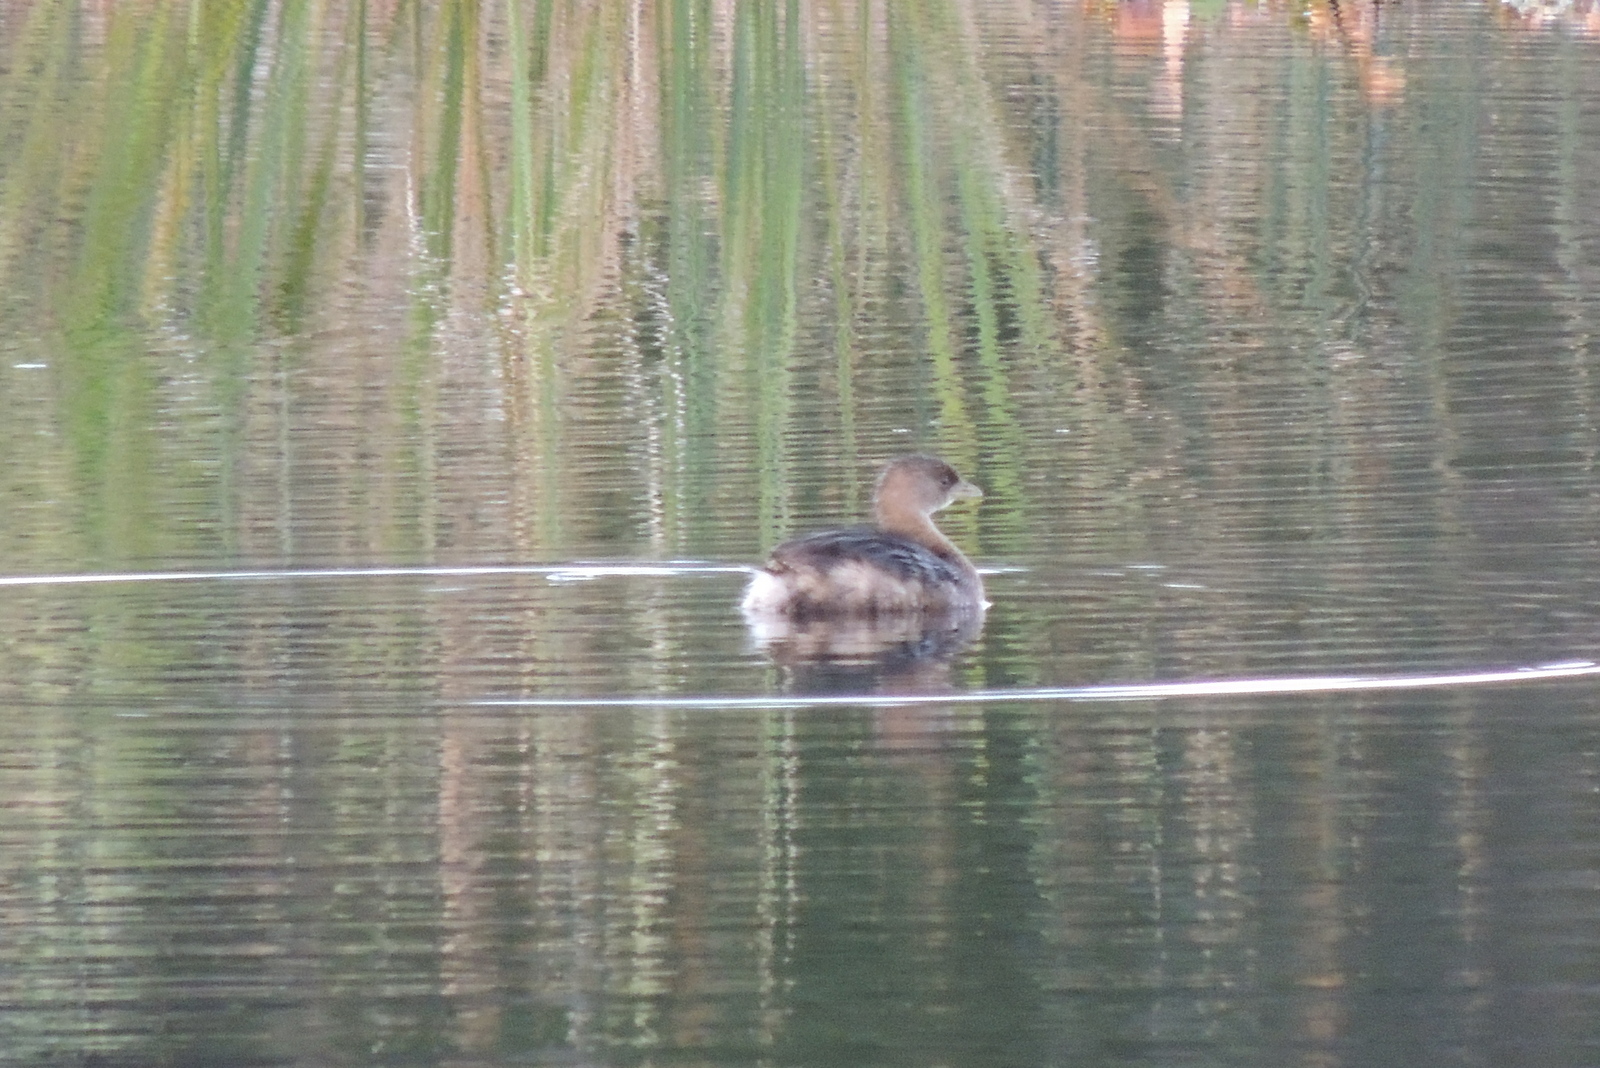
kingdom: Animalia
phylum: Chordata
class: Aves
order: Podicipediformes
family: Podicipedidae
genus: Podilymbus
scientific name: Podilymbus podiceps
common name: Pied-billed grebe
